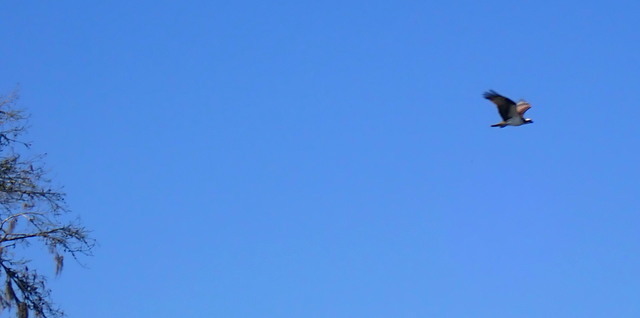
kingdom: Animalia
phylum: Chordata
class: Aves
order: Accipitriformes
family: Pandionidae
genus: Pandion
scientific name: Pandion haliaetus
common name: Osprey
